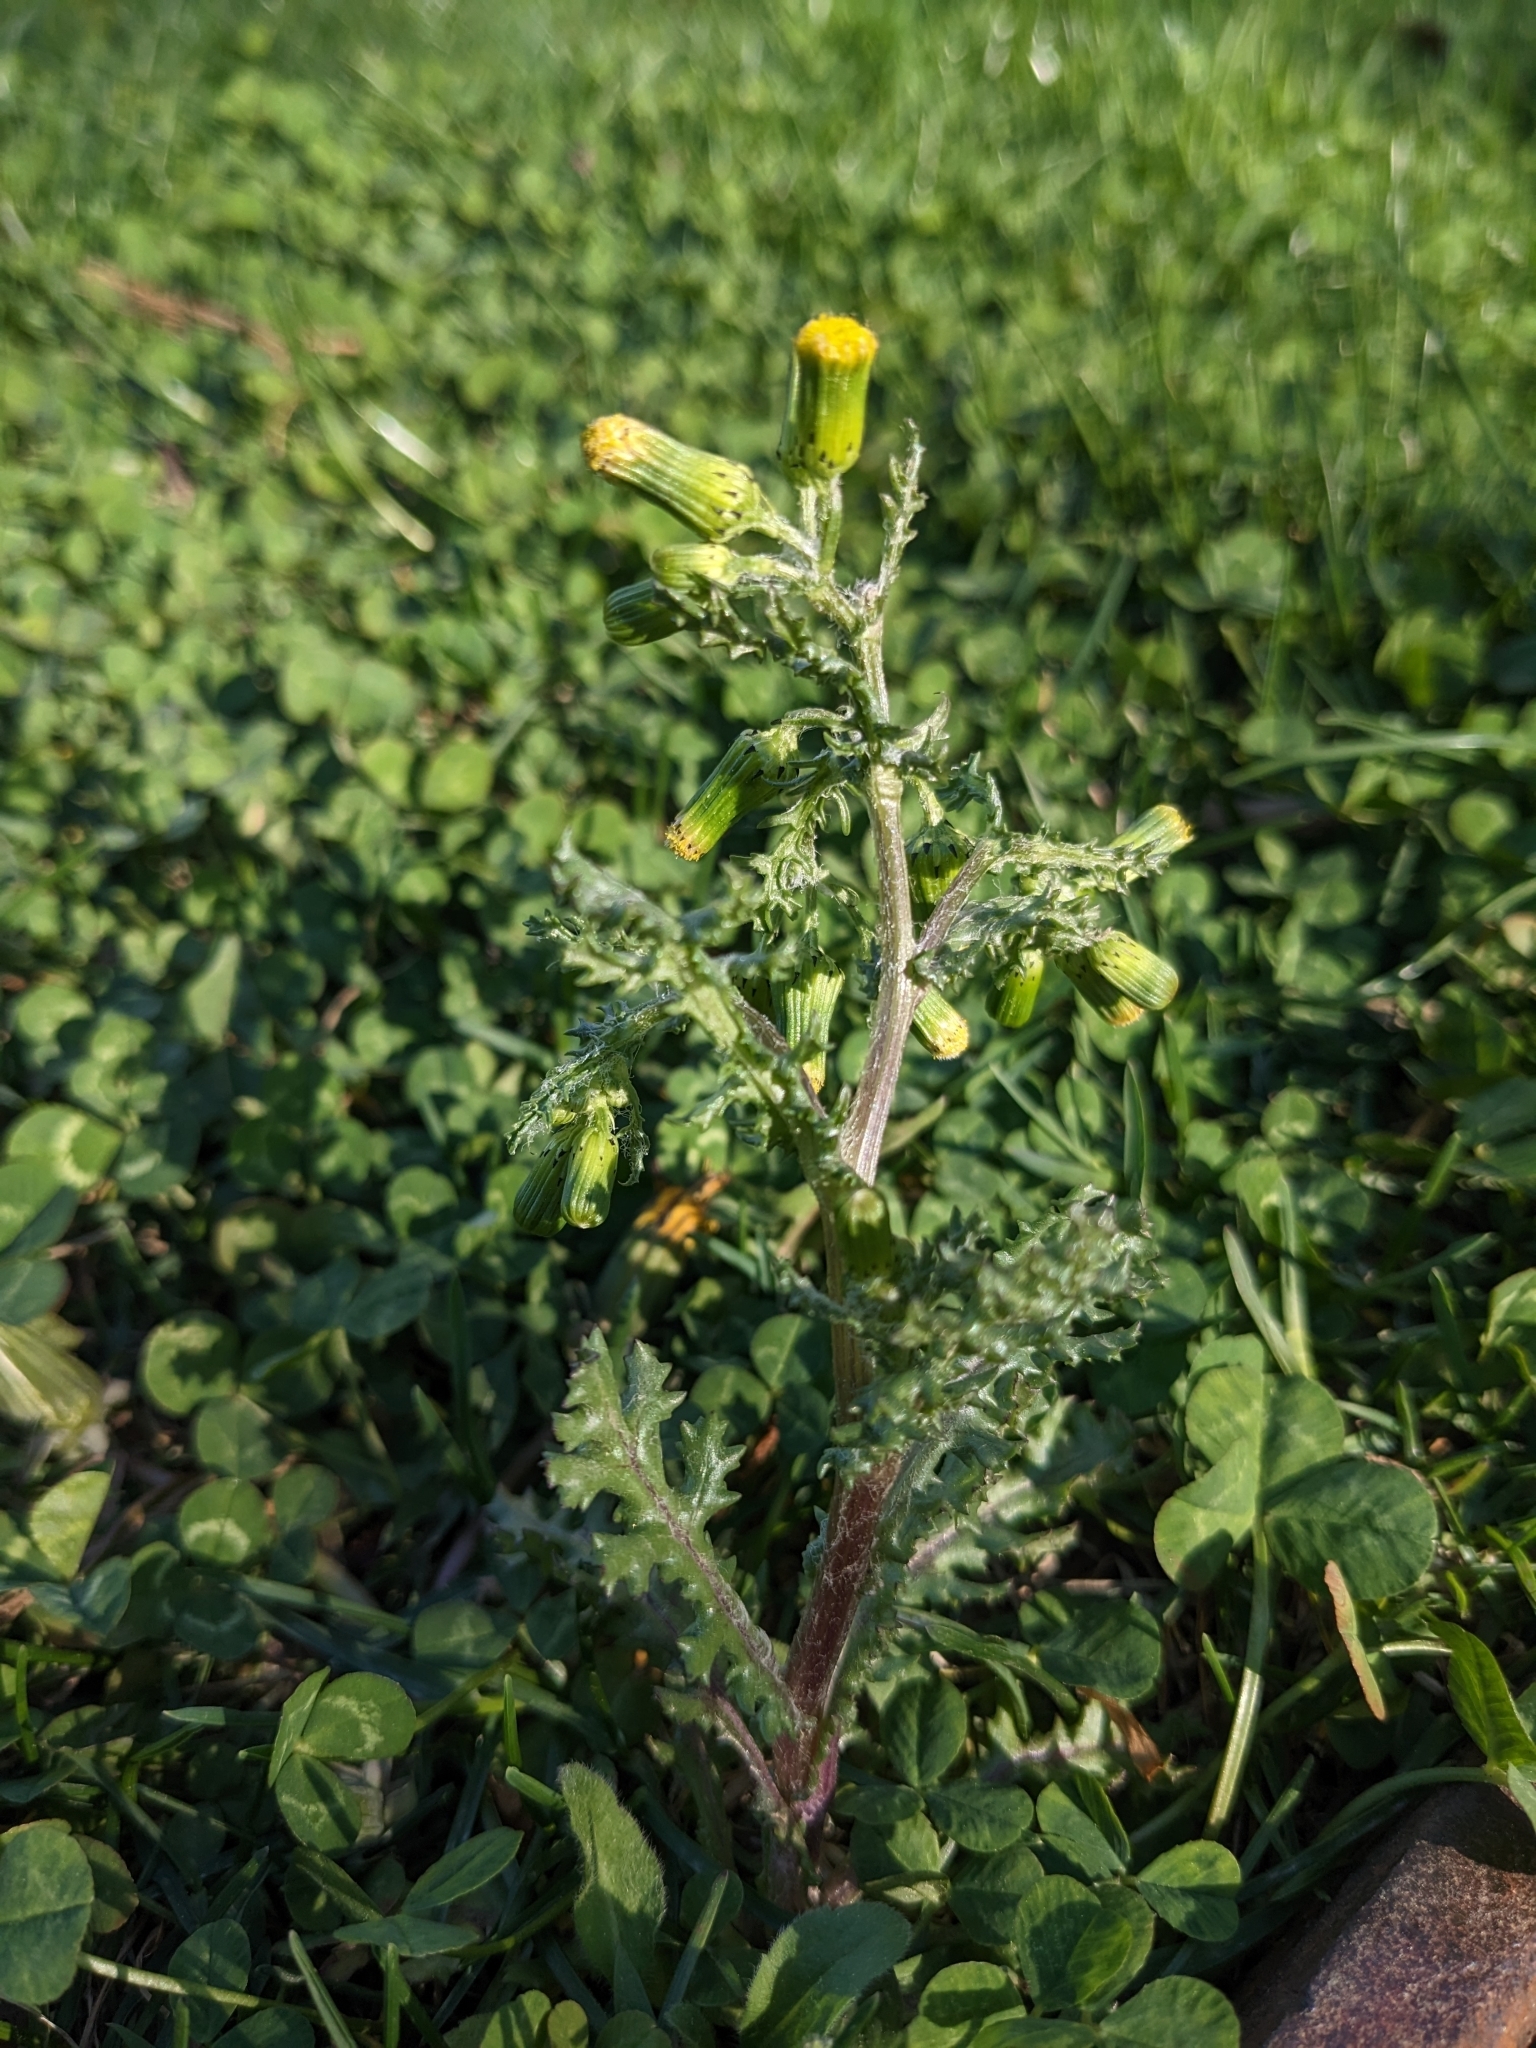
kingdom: Plantae
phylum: Tracheophyta
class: Magnoliopsida
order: Asterales
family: Asteraceae
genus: Senecio
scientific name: Senecio vulgaris
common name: Old-man-in-the-spring
